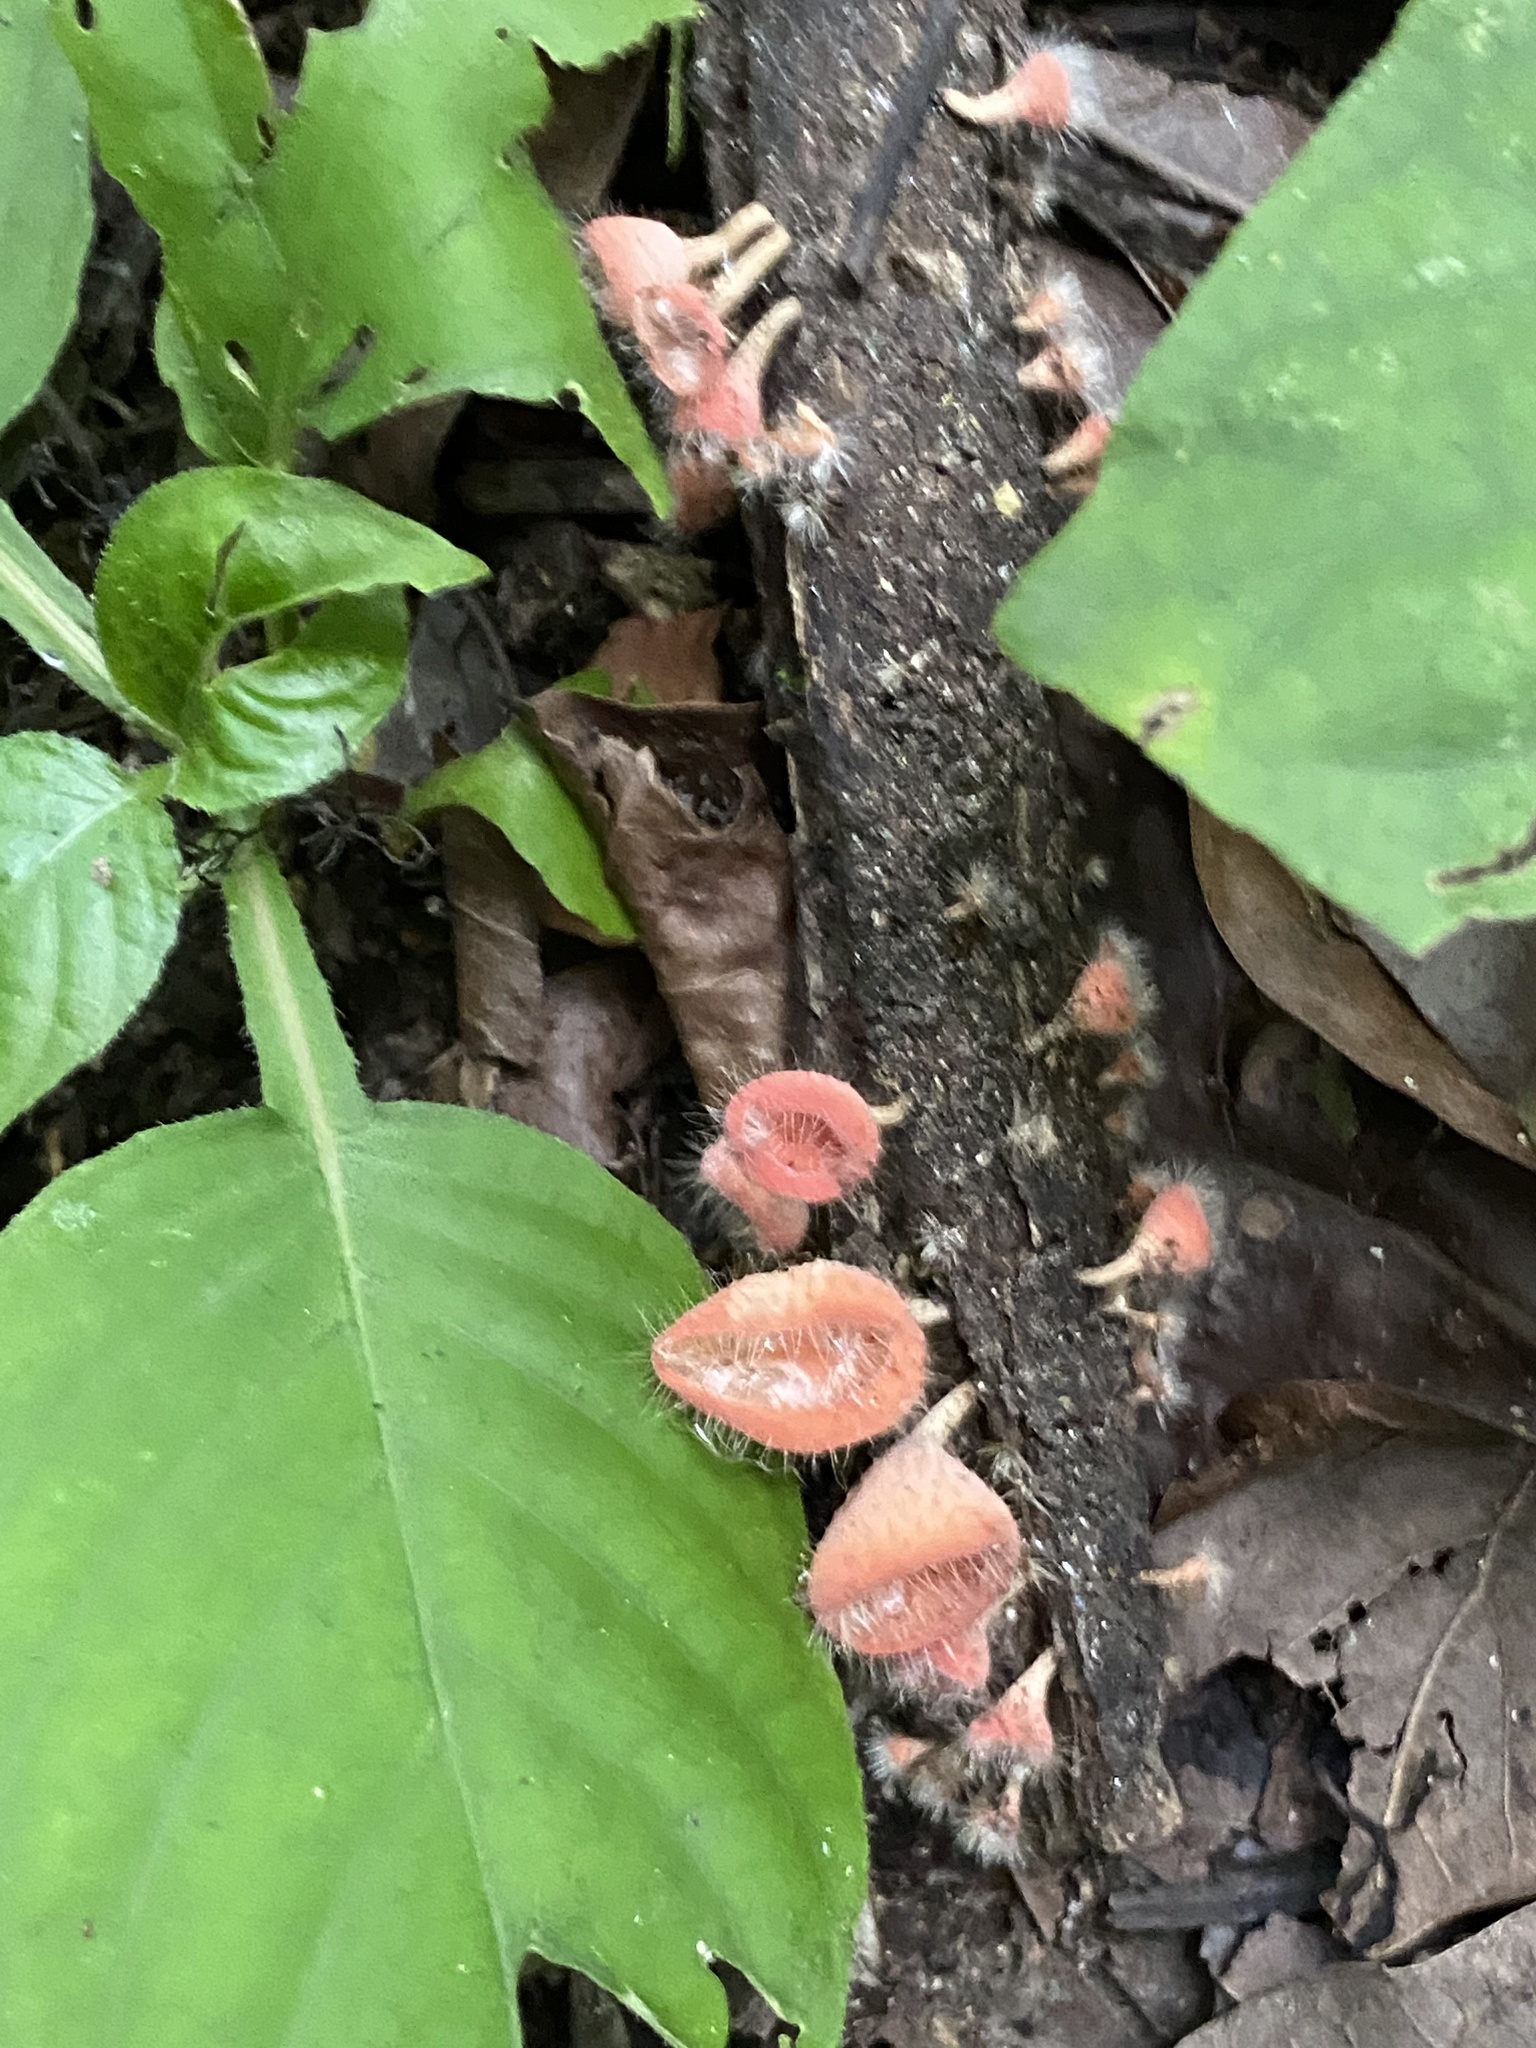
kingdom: Fungi
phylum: Ascomycota
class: Pezizomycetes
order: Pezizales
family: Sarcoscyphaceae
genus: Cookeina
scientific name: Cookeina tricholoma
